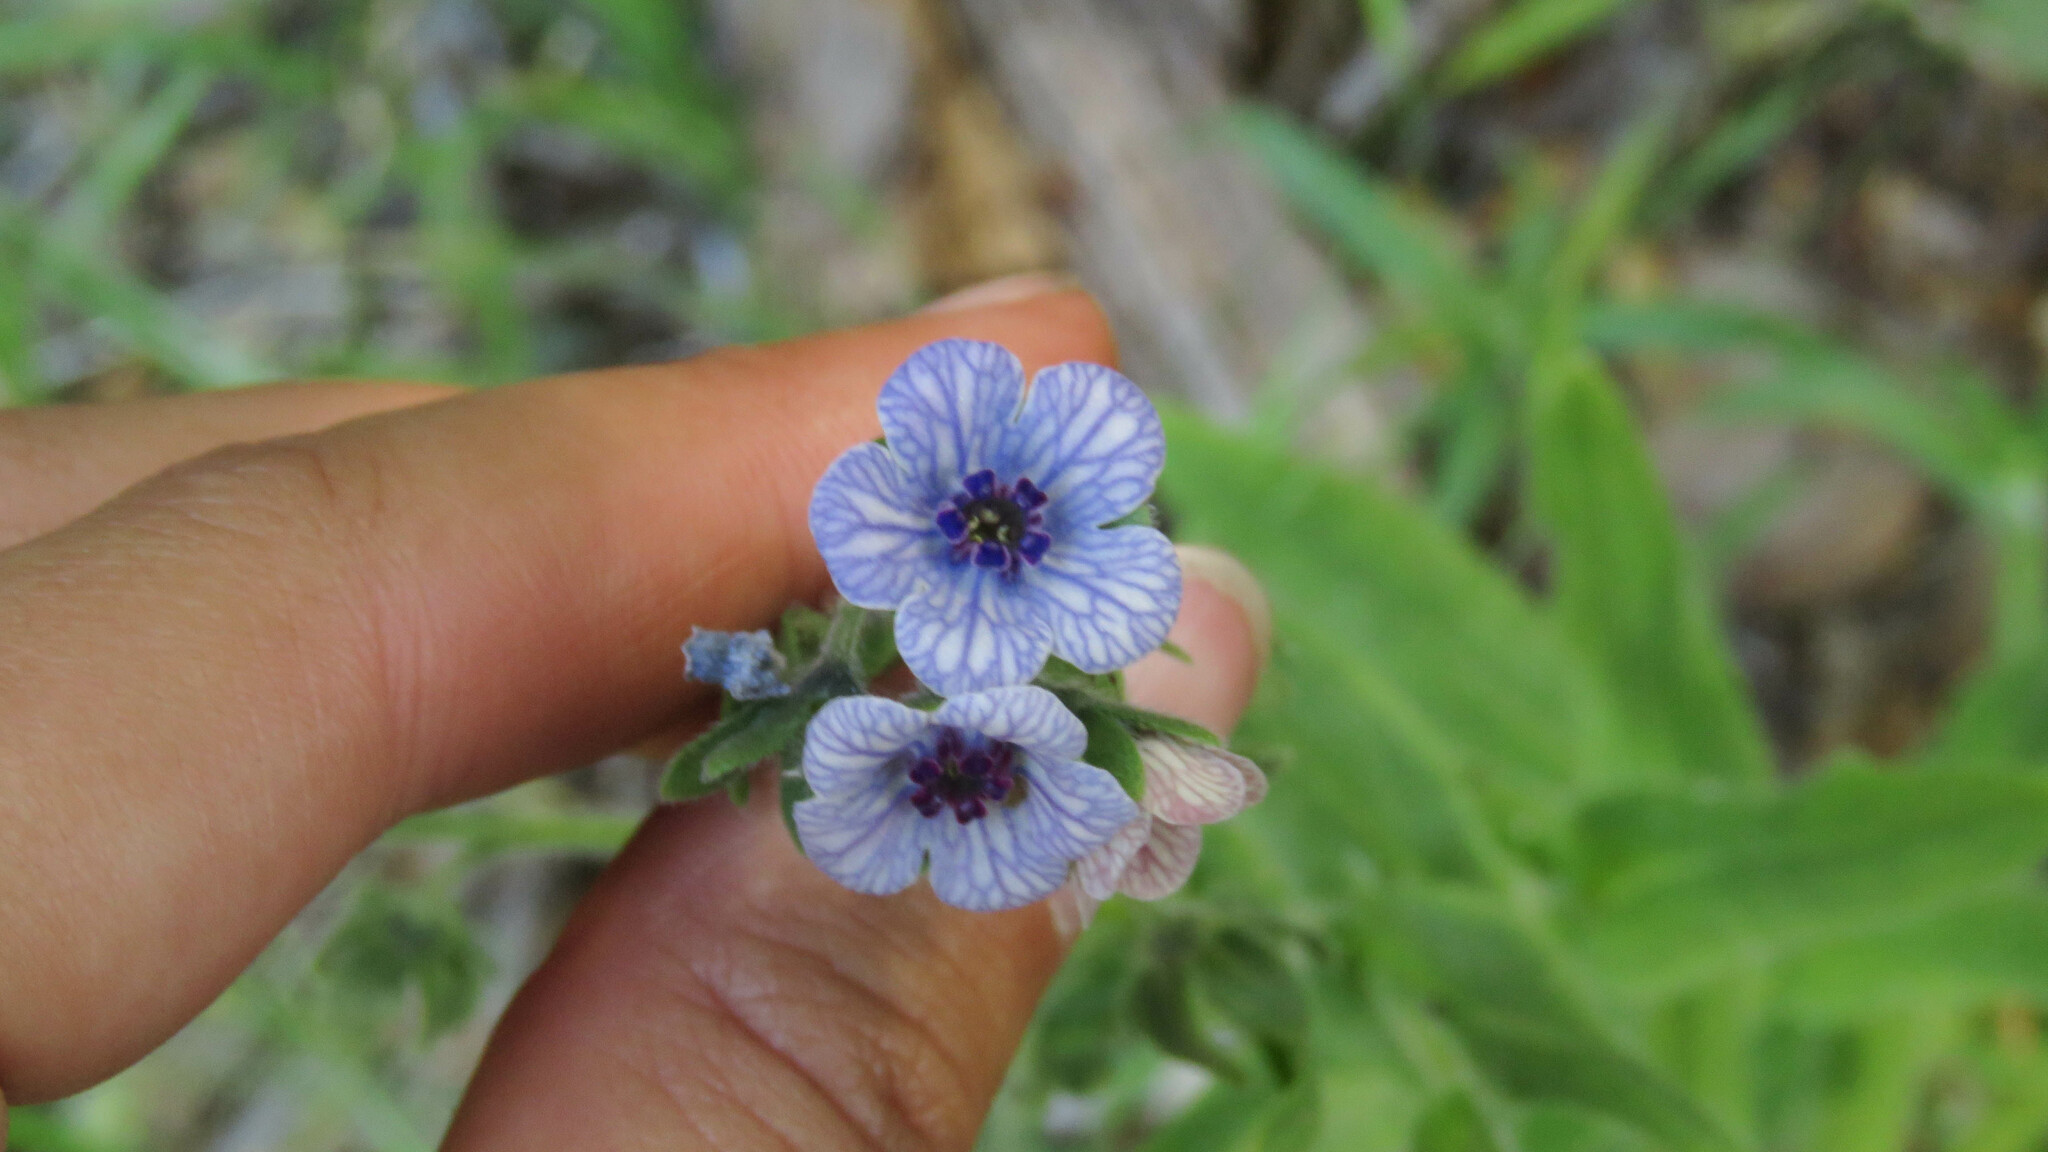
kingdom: Plantae
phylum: Tracheophyta
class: Magnoliopsida
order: Boraginales
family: Boraginaceae
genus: Cynoglossum
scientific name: Cynoglossum creticum
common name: Blue hound's tongue
